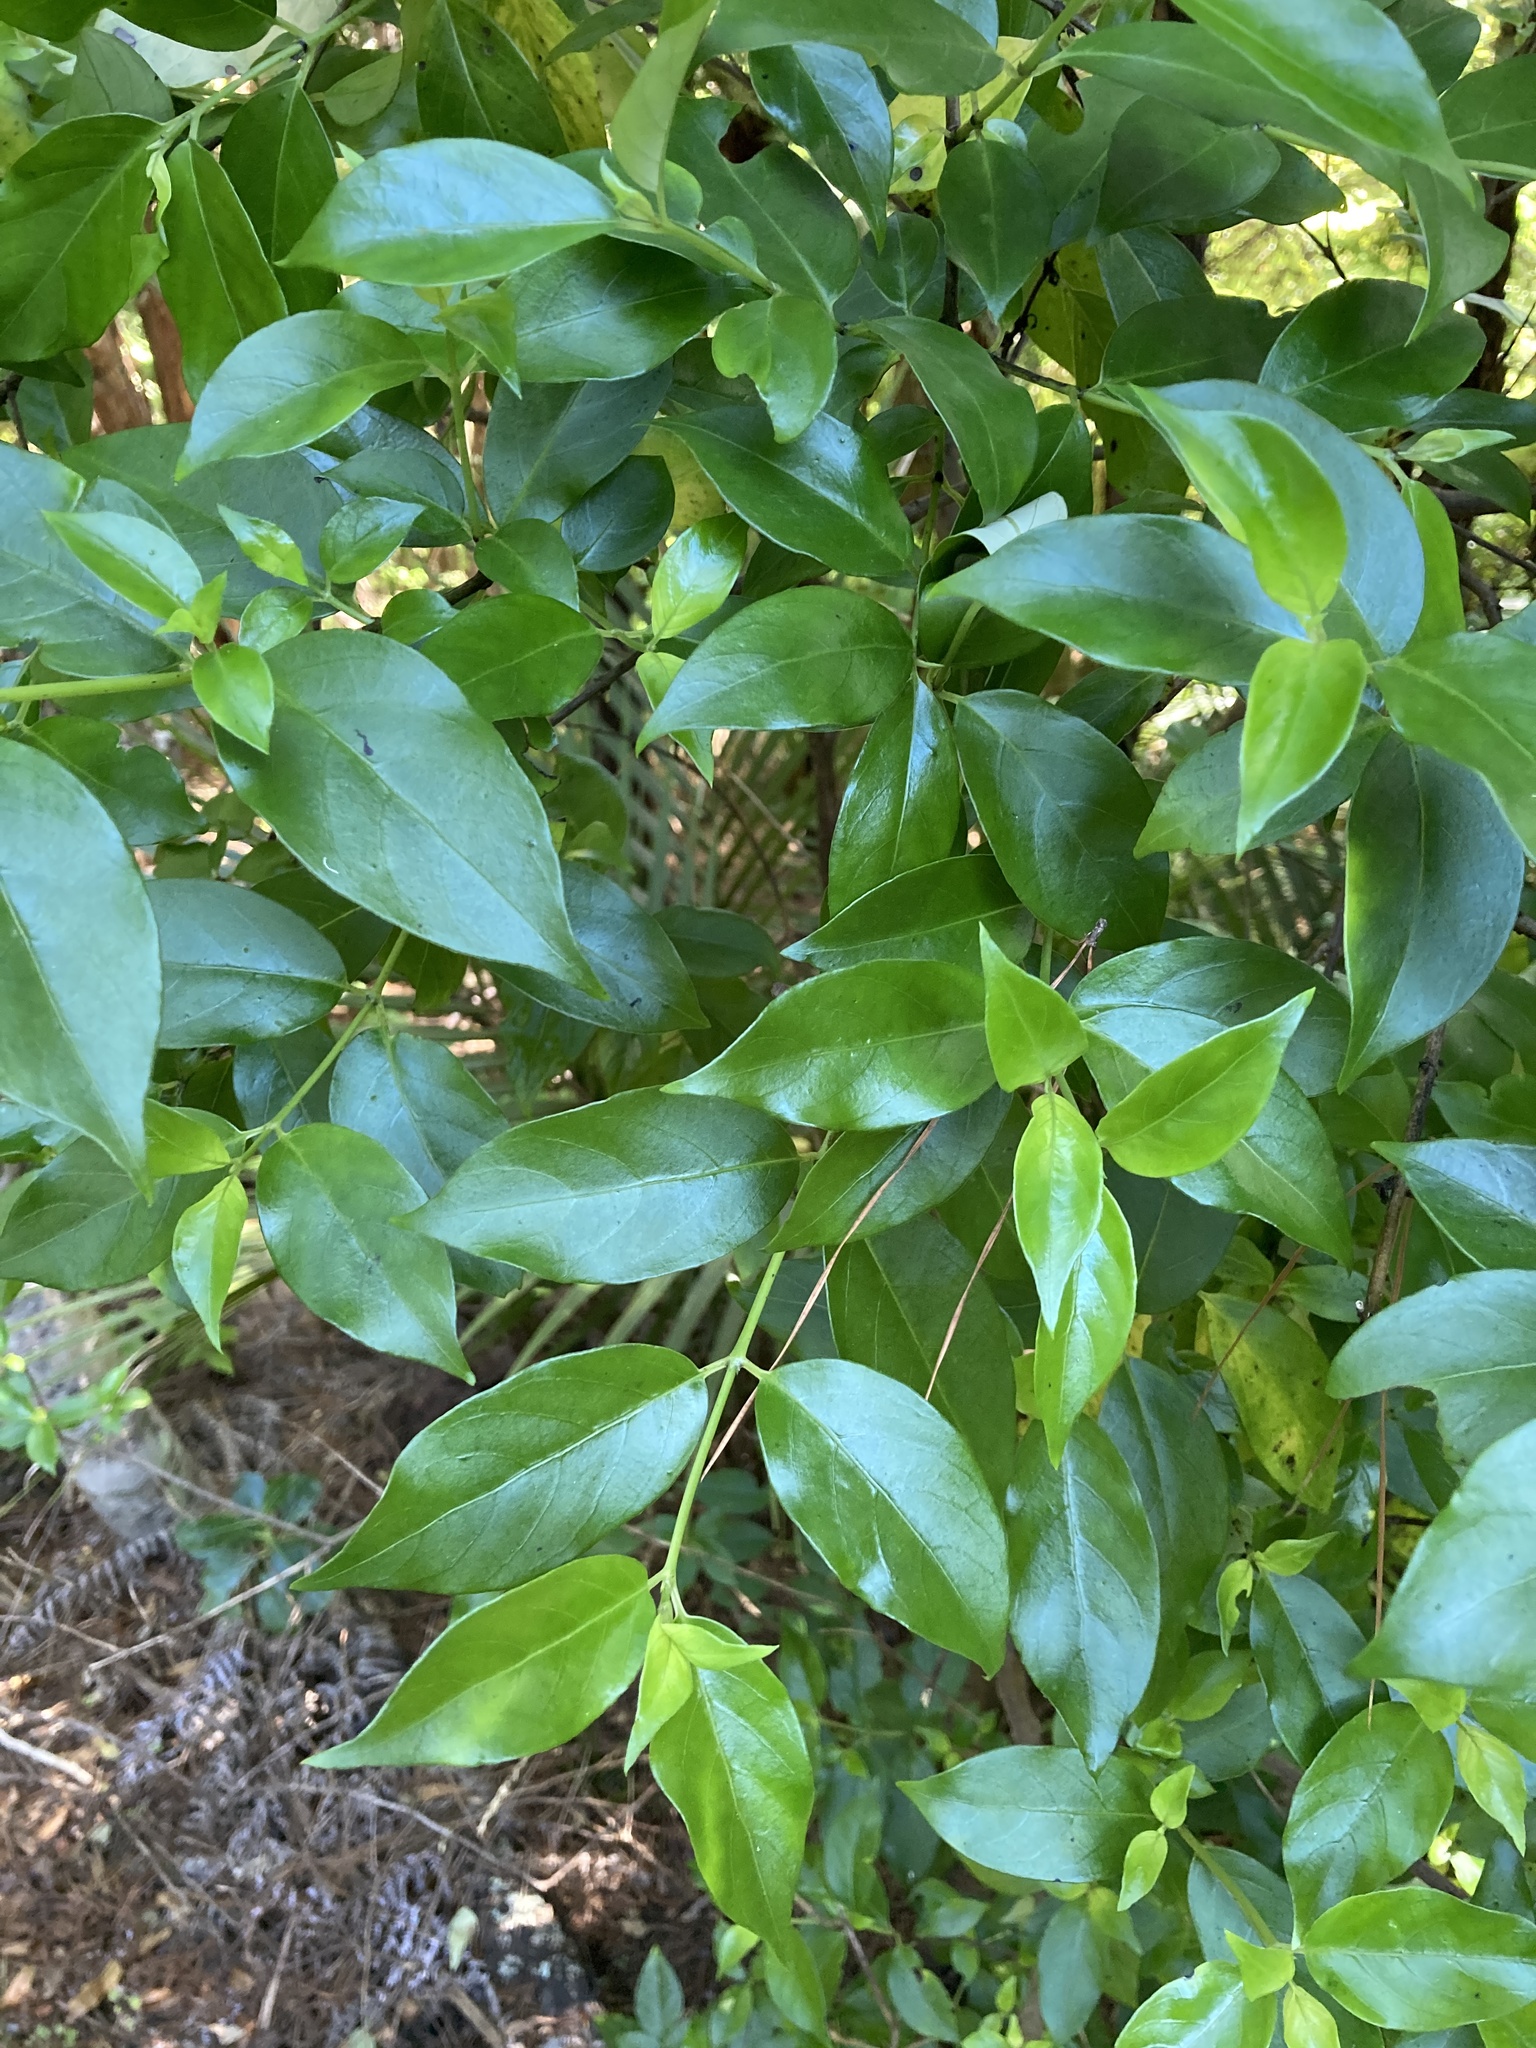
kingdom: Plantae
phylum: Tracheophyta
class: Magnoliopsida
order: Gentianales
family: Loganiaceae
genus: Geniostoma
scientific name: Geniostoma ligustrifolium
